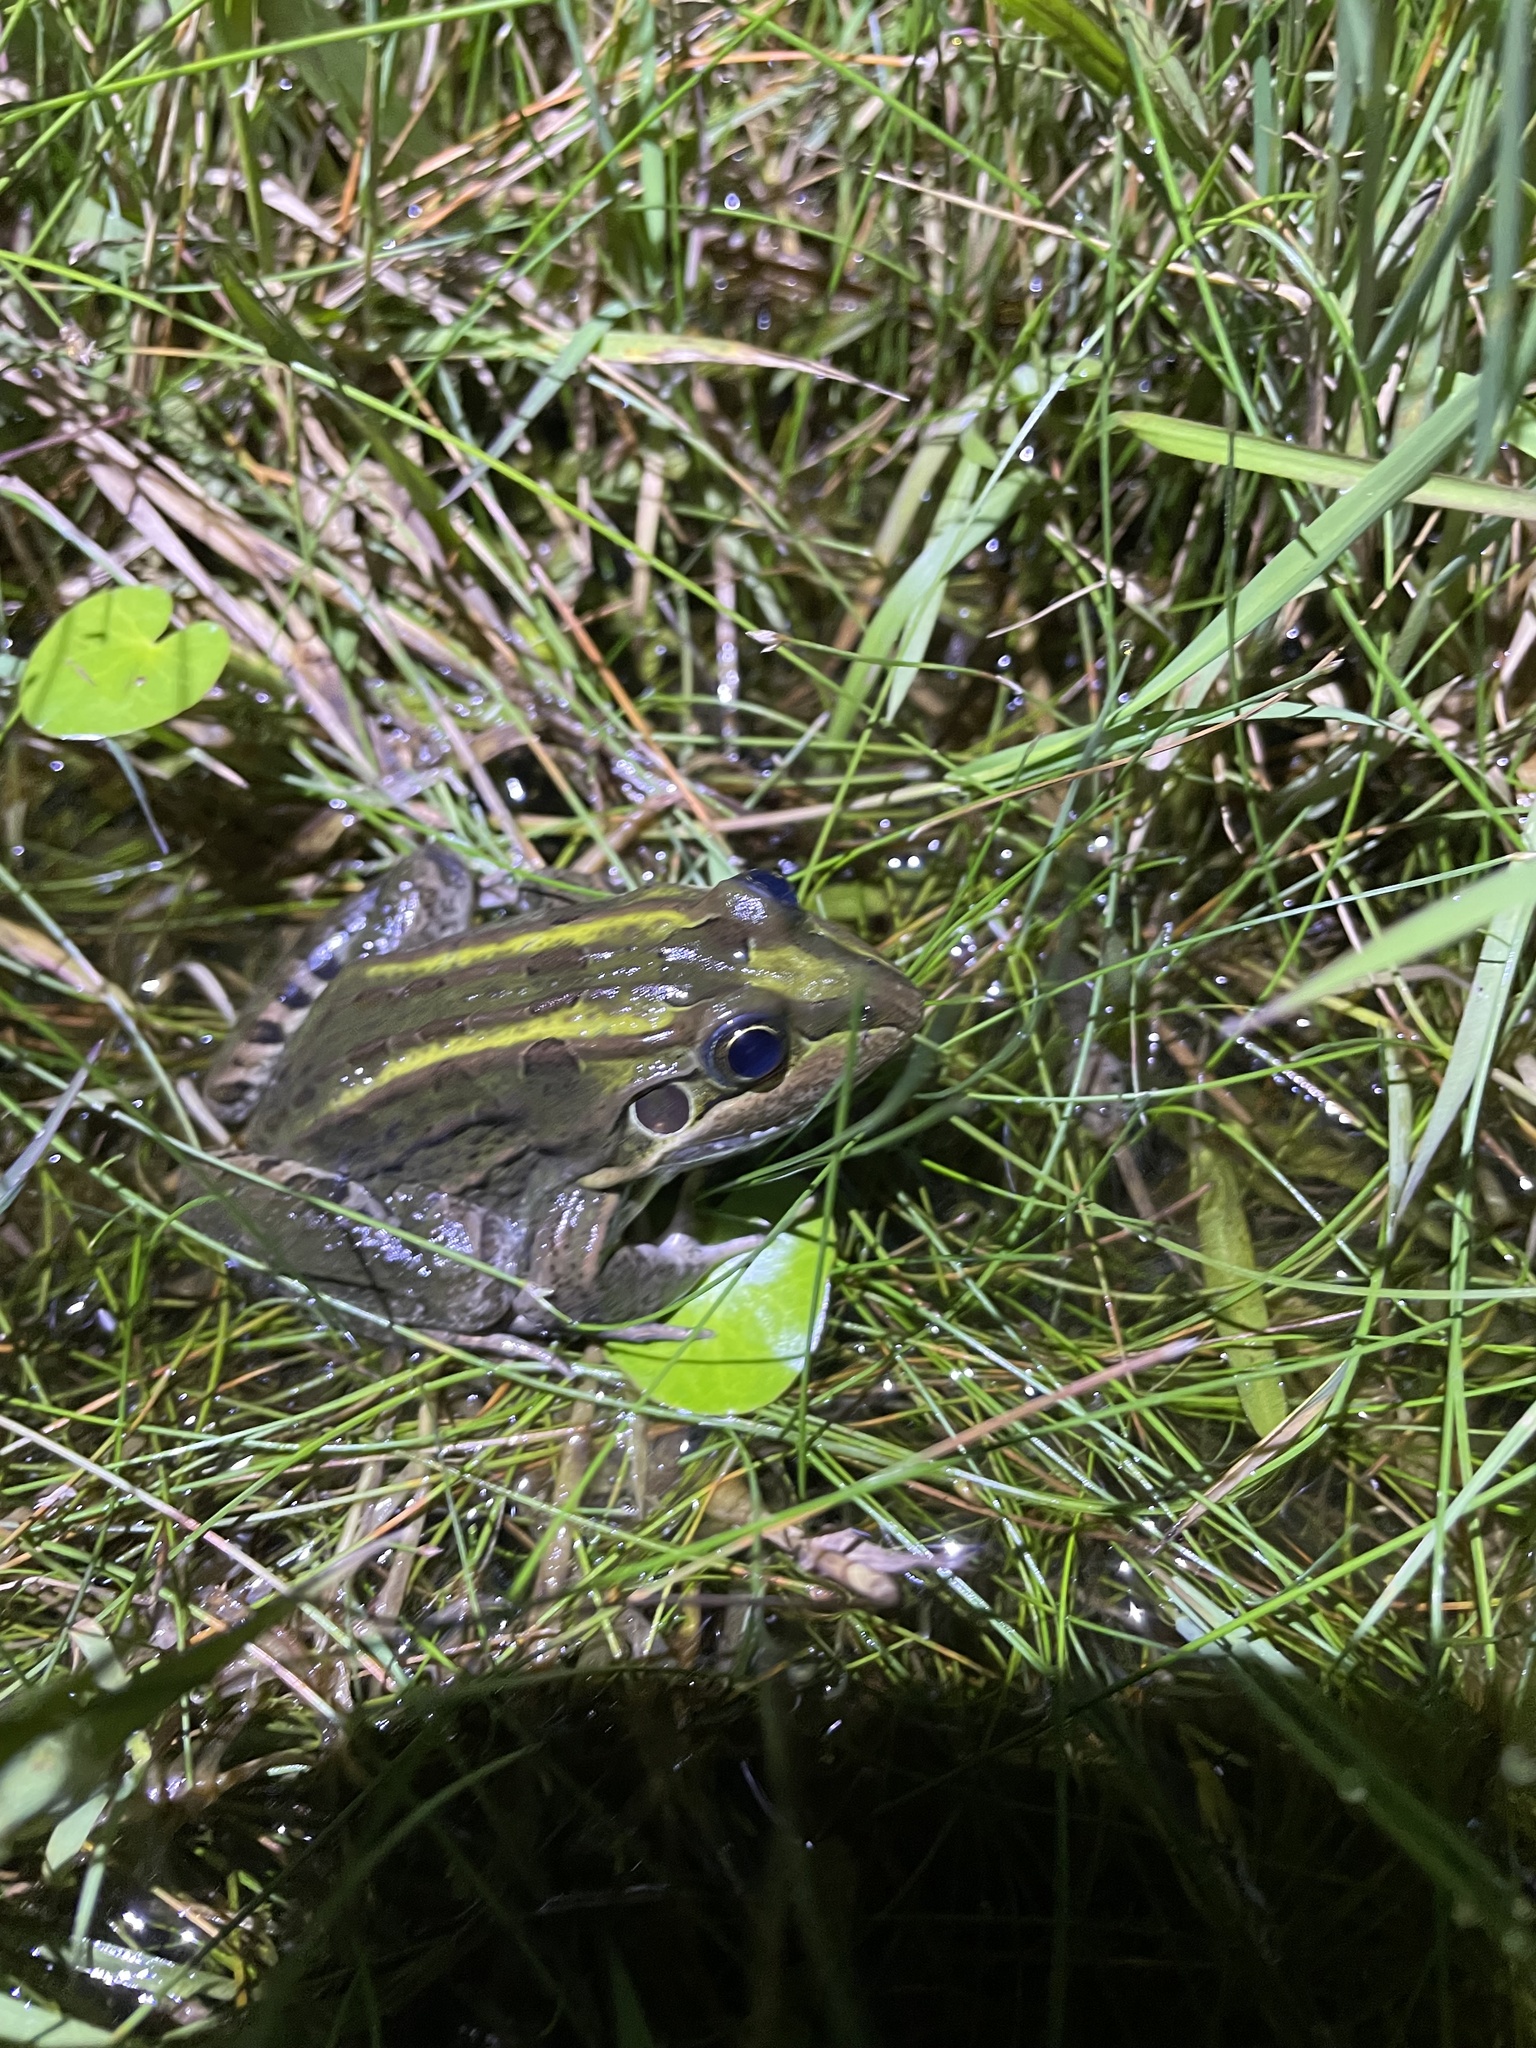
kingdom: Animalia
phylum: Chordata
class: Amphibia
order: Anura
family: Leptodactylidae
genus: Leptodactylus
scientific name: Leptodactylus luctator
